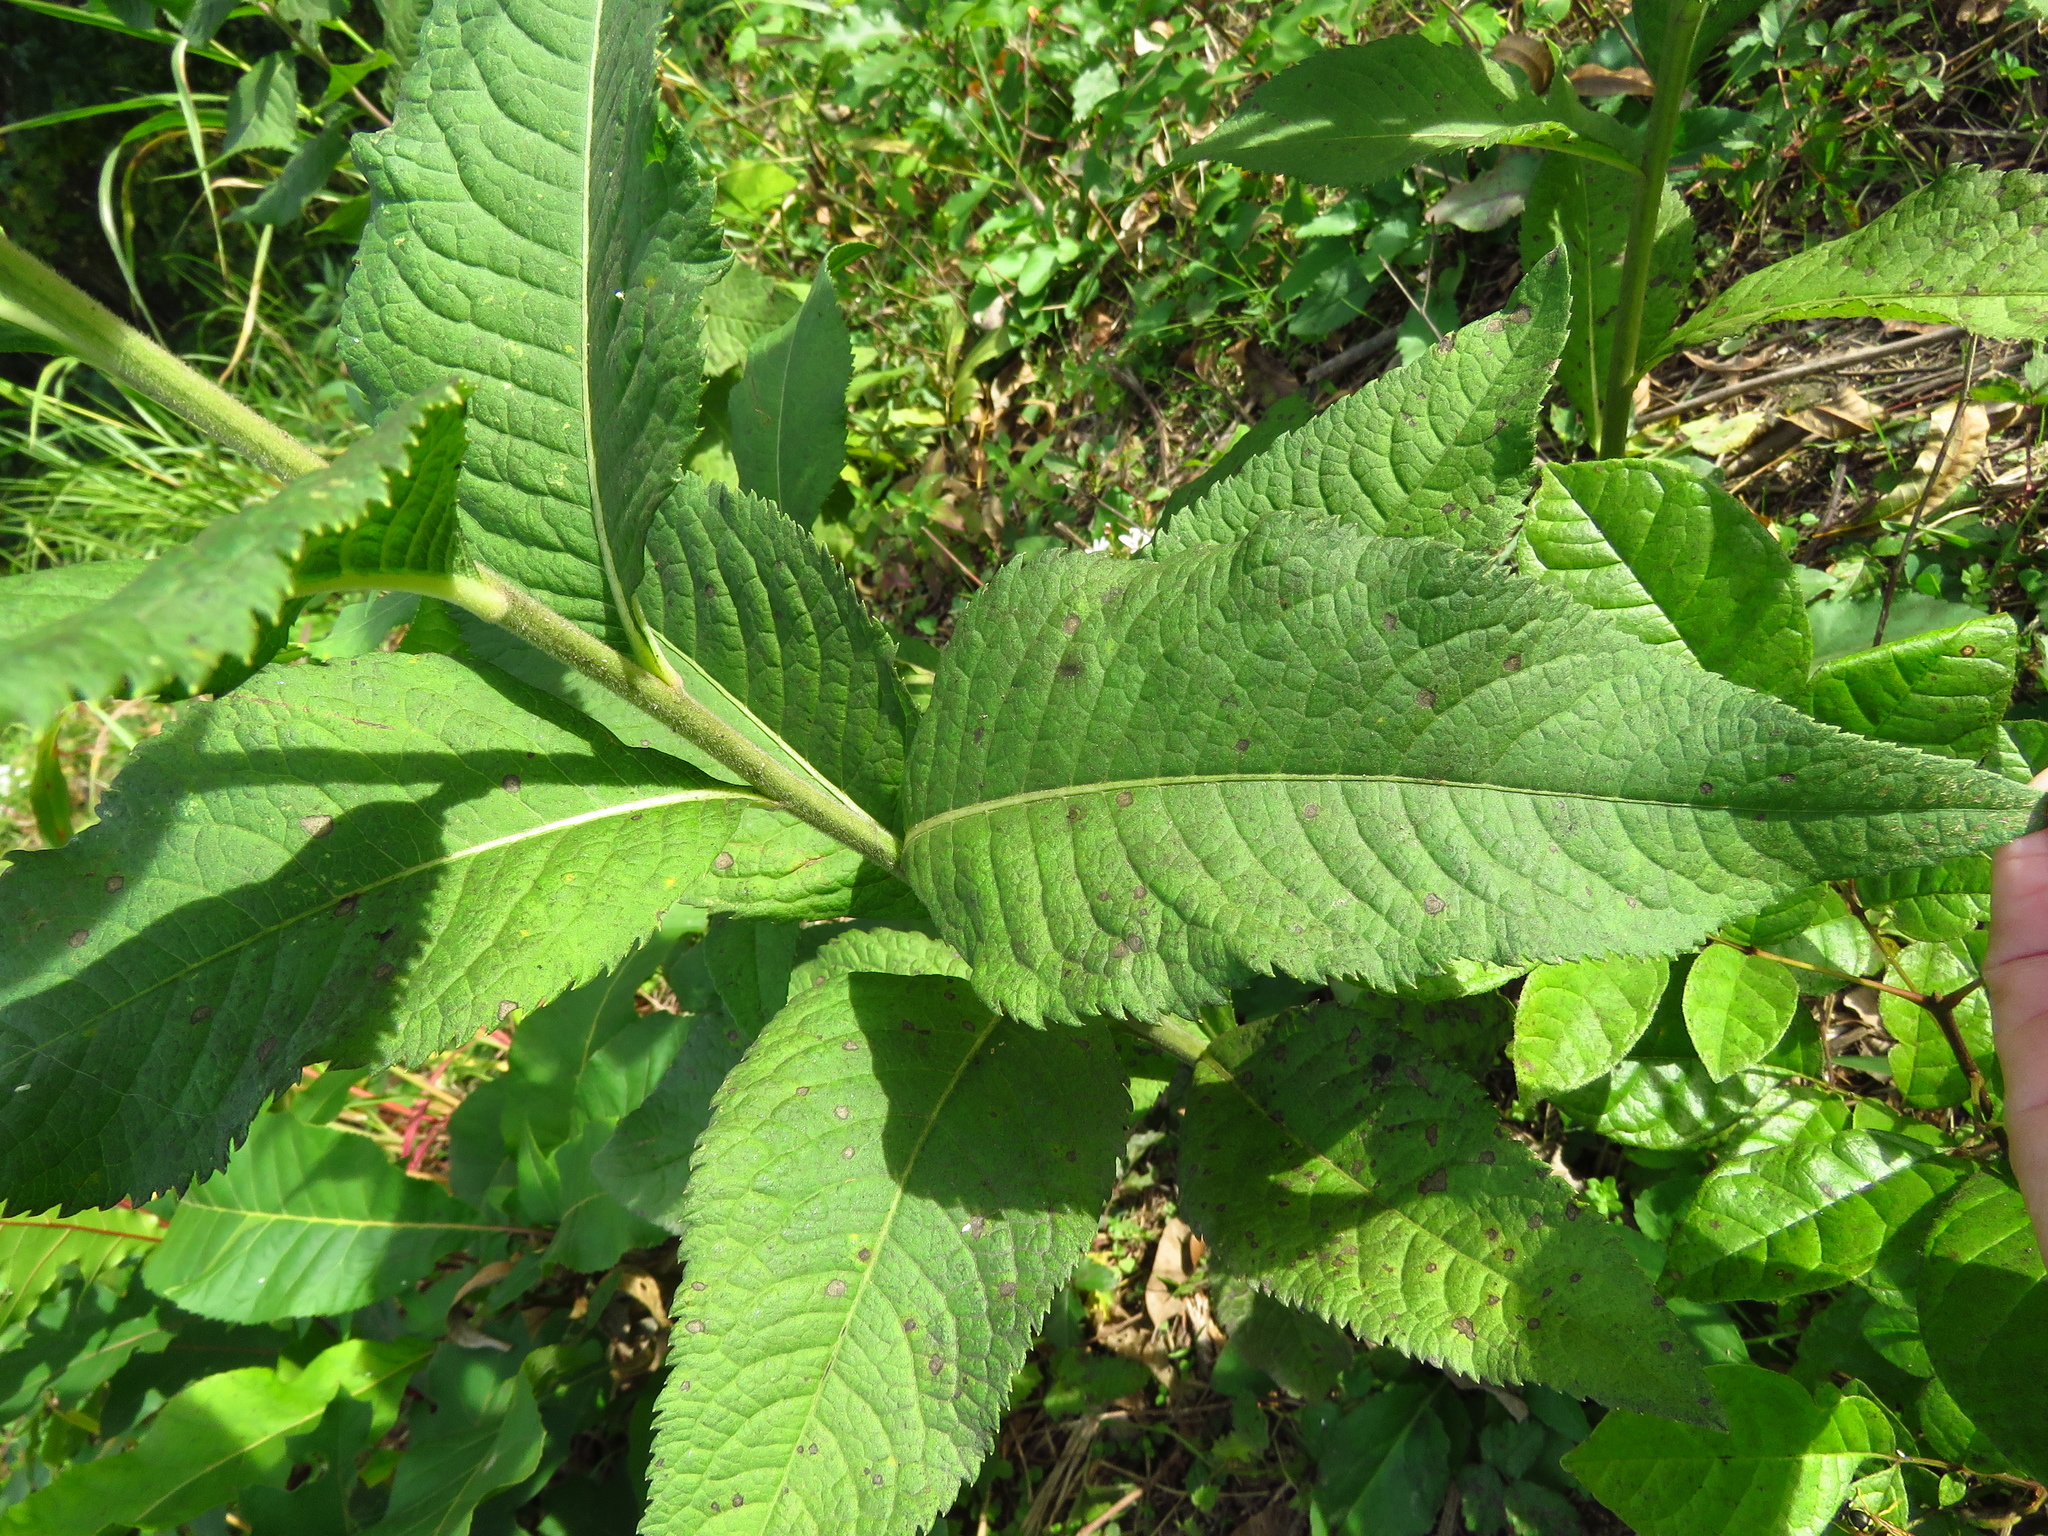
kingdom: Plantae
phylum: Tracheophyta
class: Magnoliopsida
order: Asterales
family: Asteraceae
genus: Vernonia
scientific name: Vernonia baldwinii
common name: Western ironweed
